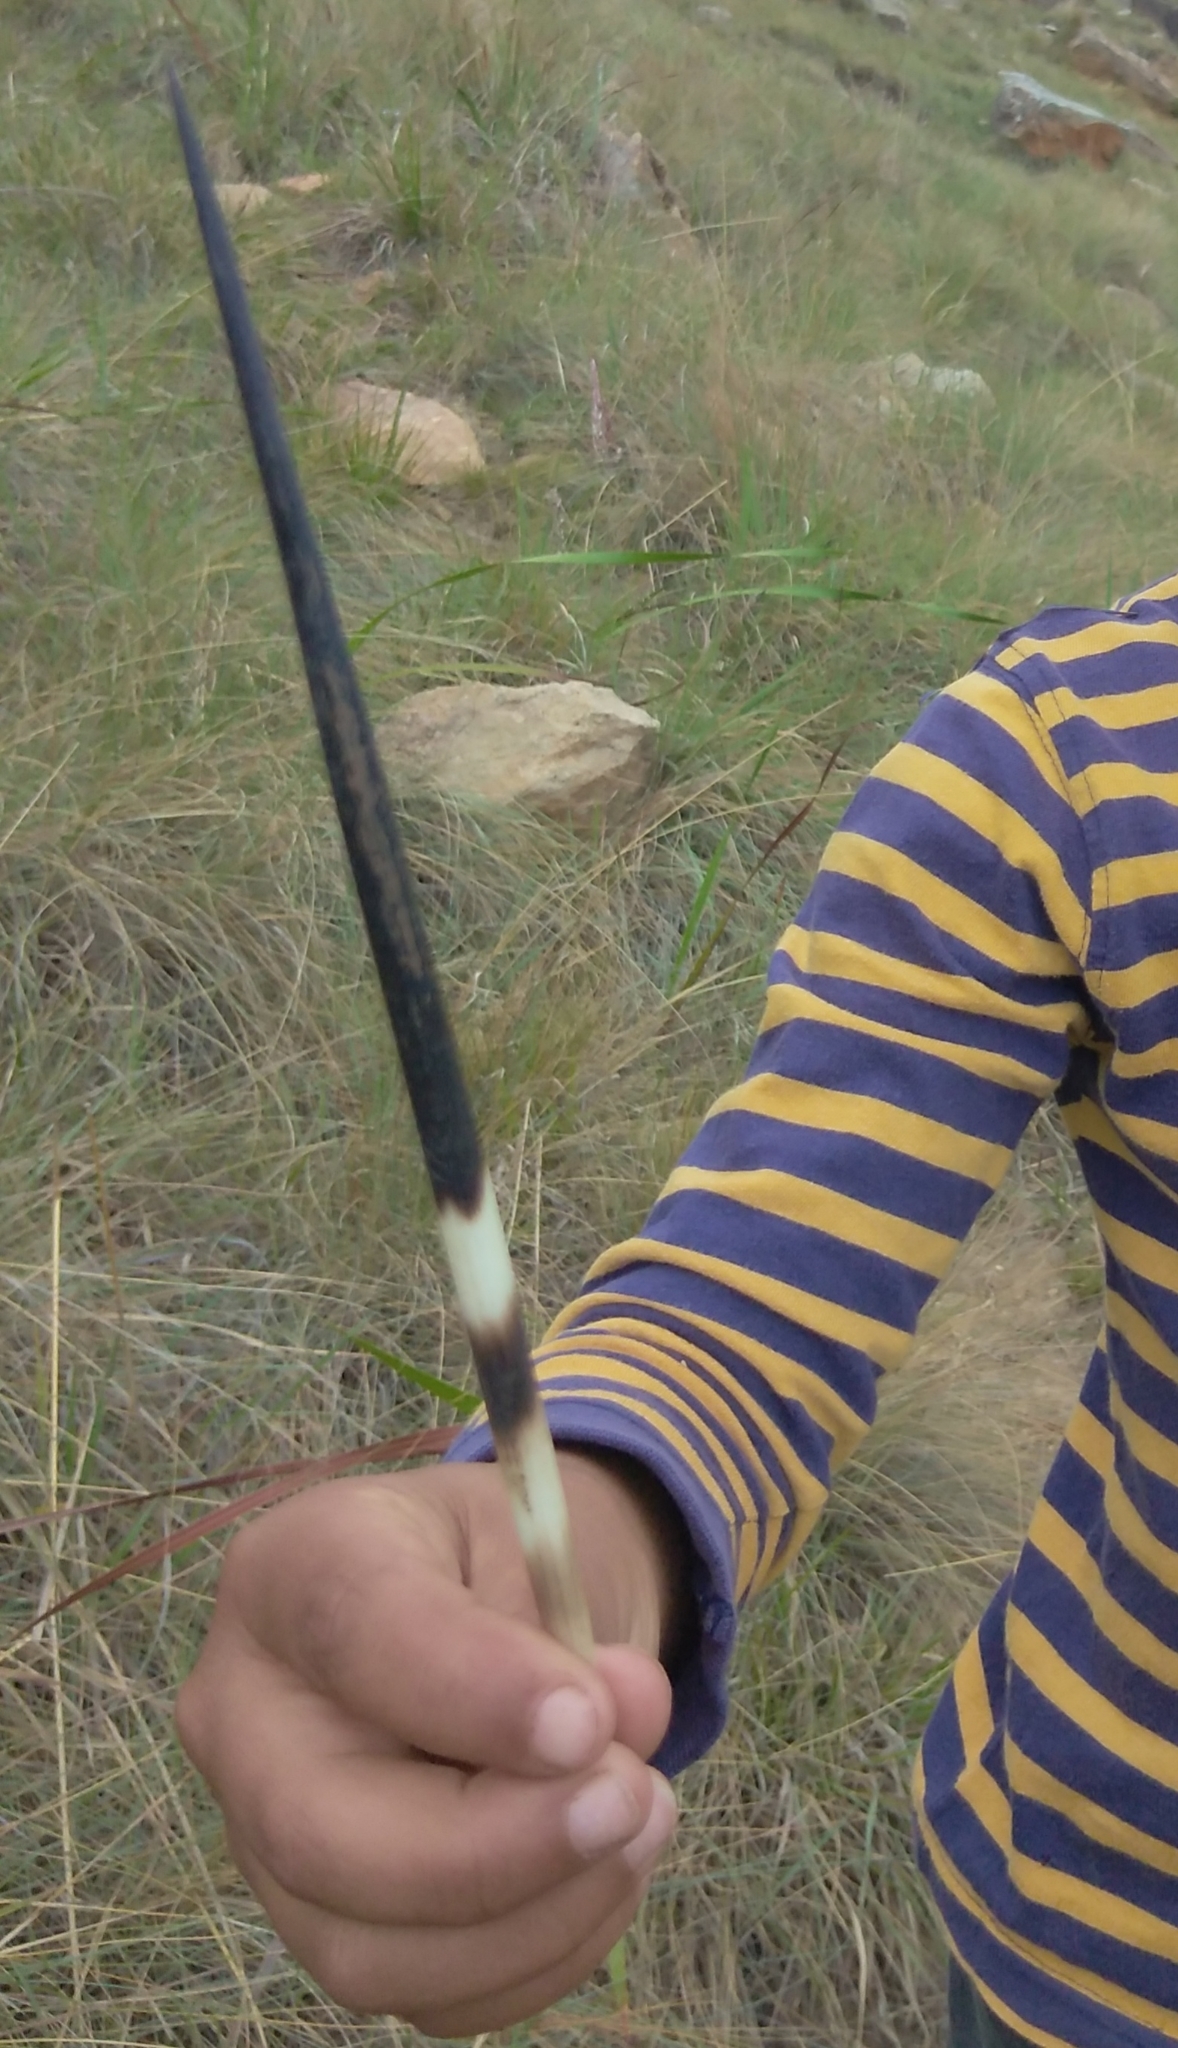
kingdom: Animalia
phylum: Chordata
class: Mammalia
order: Rodentia
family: Hystricidae
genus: Hystrix
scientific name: Hystrix africaeaustralis
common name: Cape porcupine
